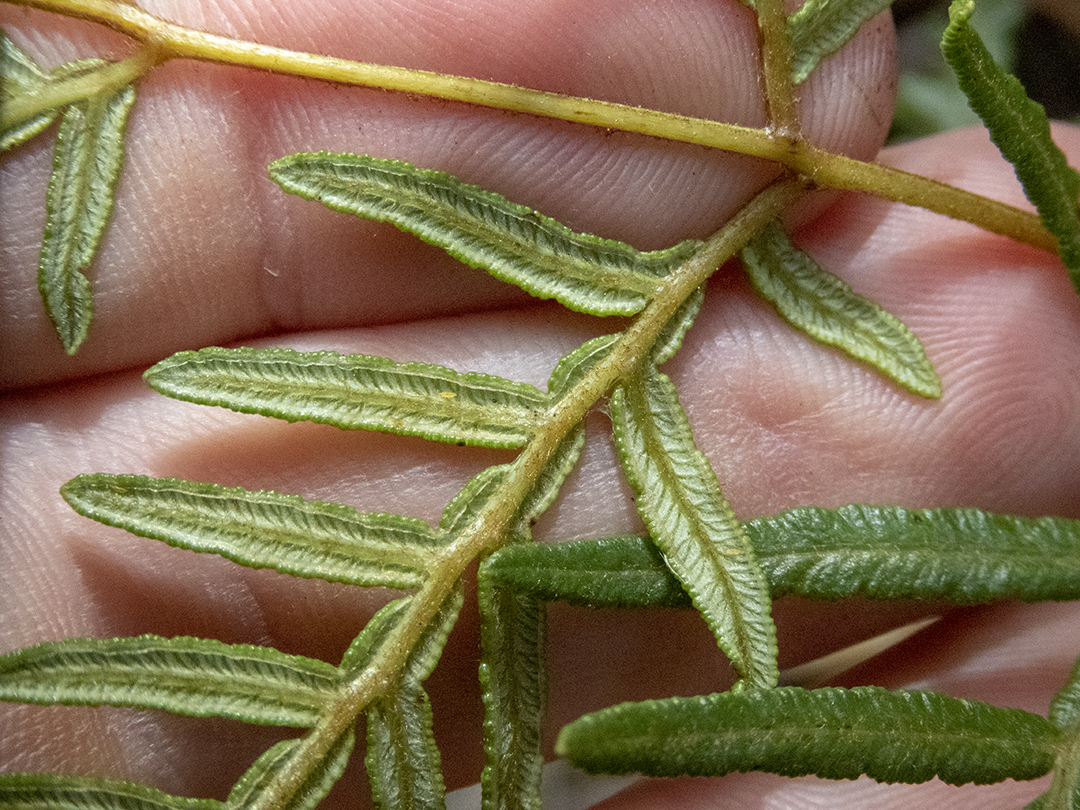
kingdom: Plantae
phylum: Tracheophyta
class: Polypodiopsida
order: Polypodiales
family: Dennstaedtiaceae
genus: Pteridium
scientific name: Pteridium esculentum
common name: Bracken fern
